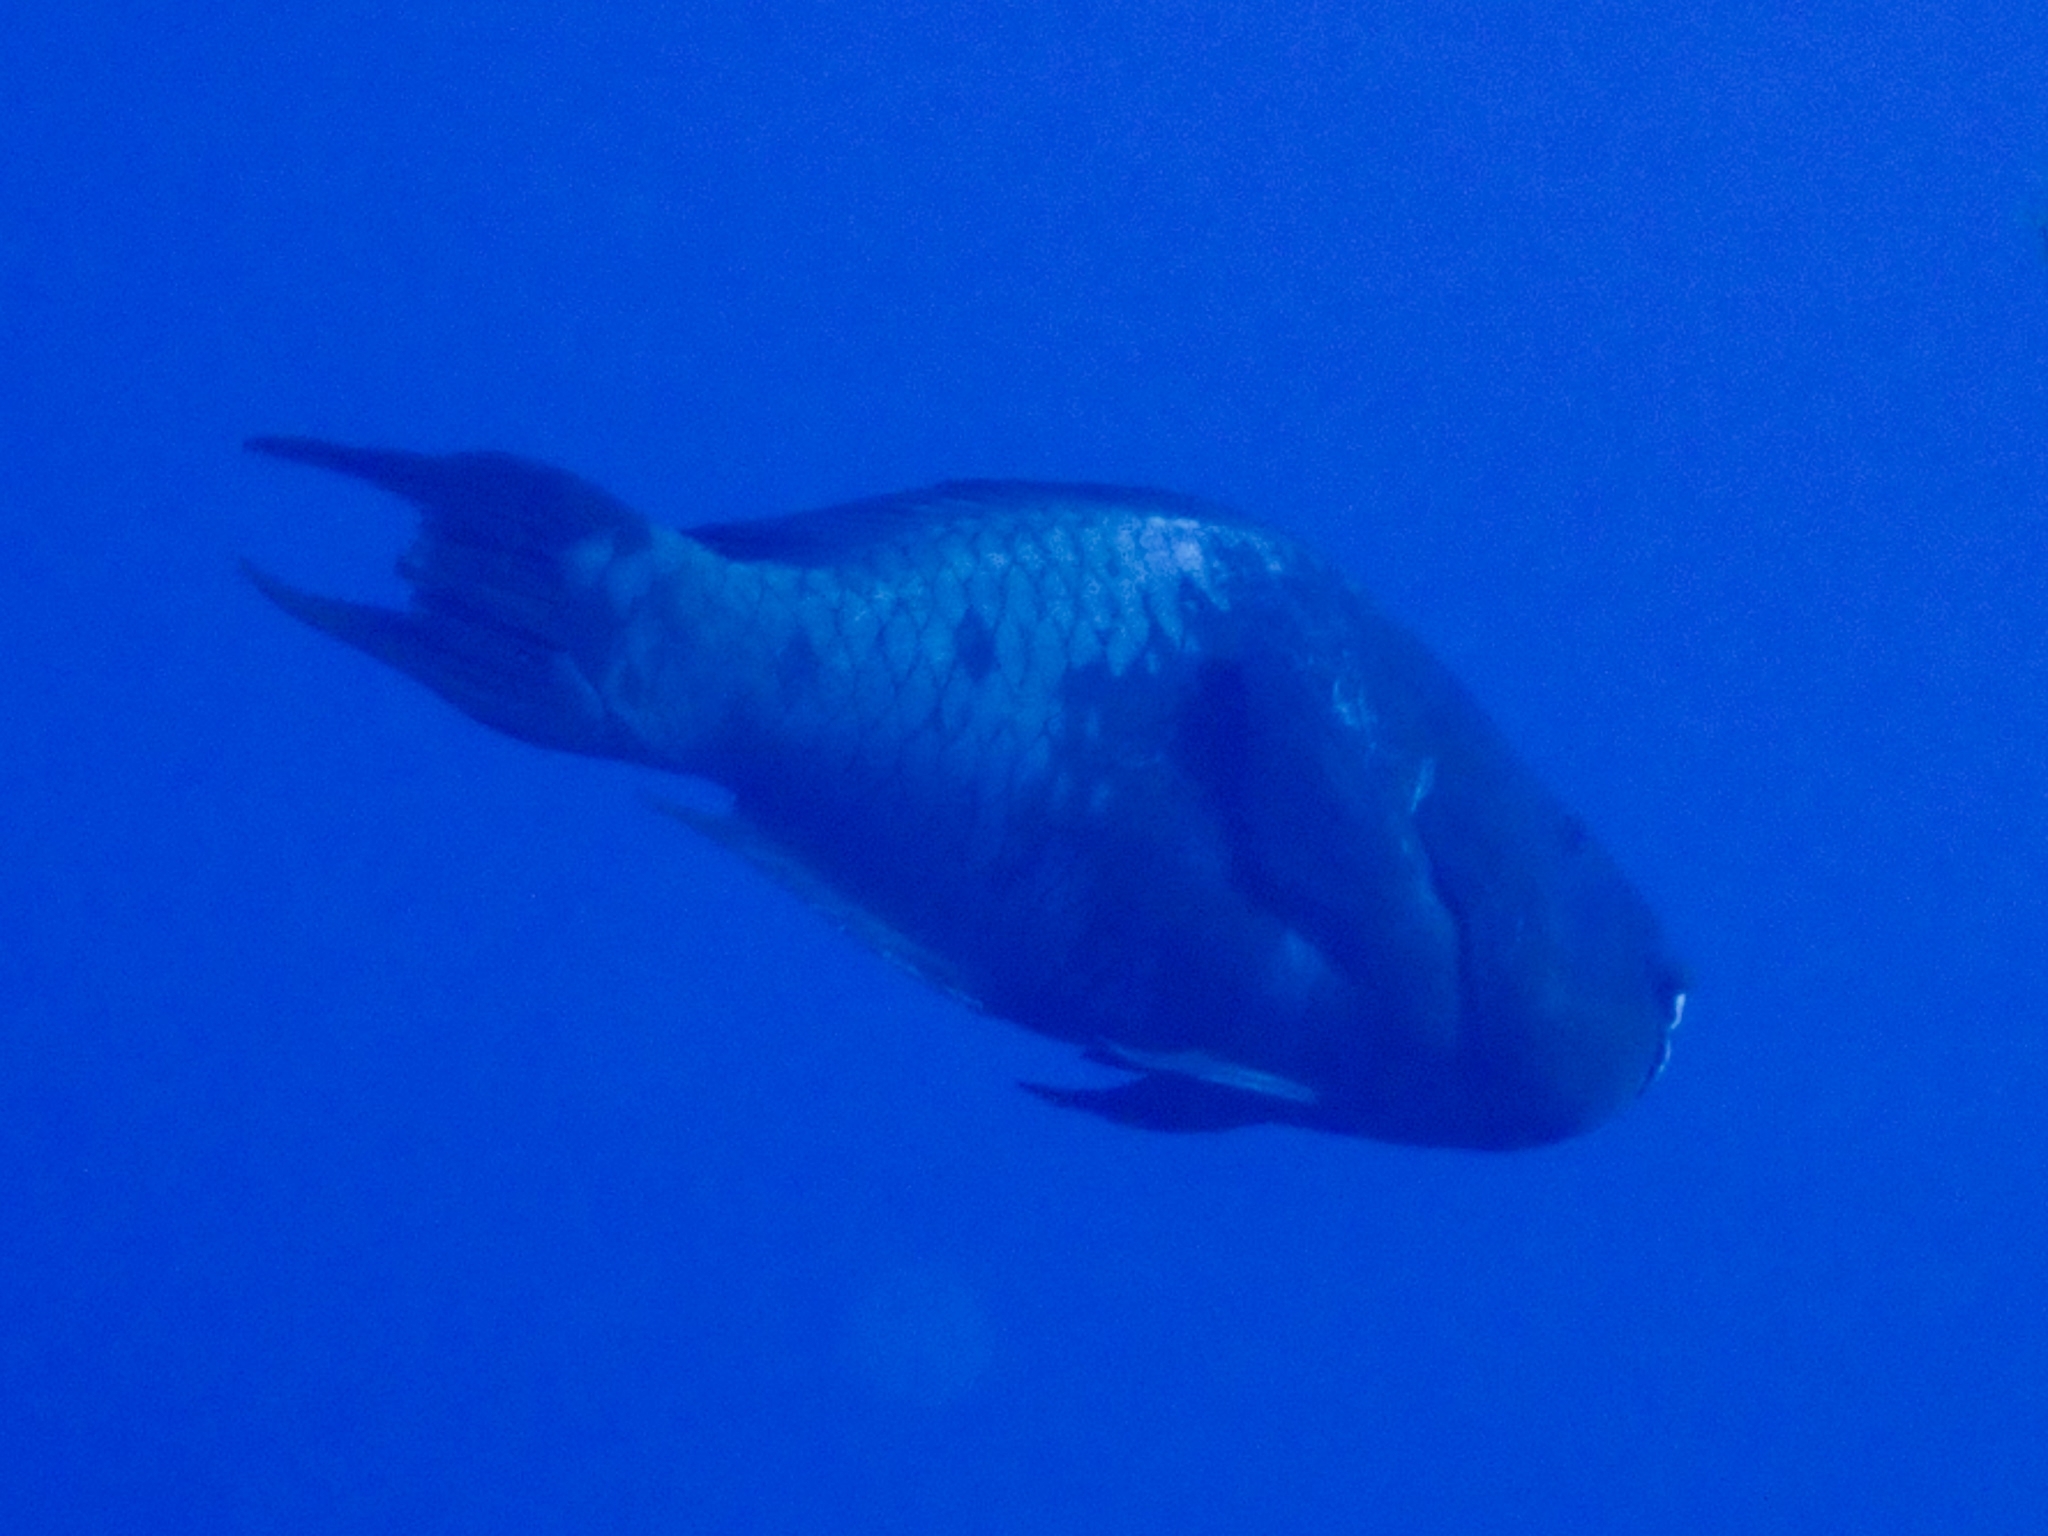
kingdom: Animalia
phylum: Chordata
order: Perciformes
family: Scaridae
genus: Scarus
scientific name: Scarus guacamaia
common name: Rainbow parrotfish
